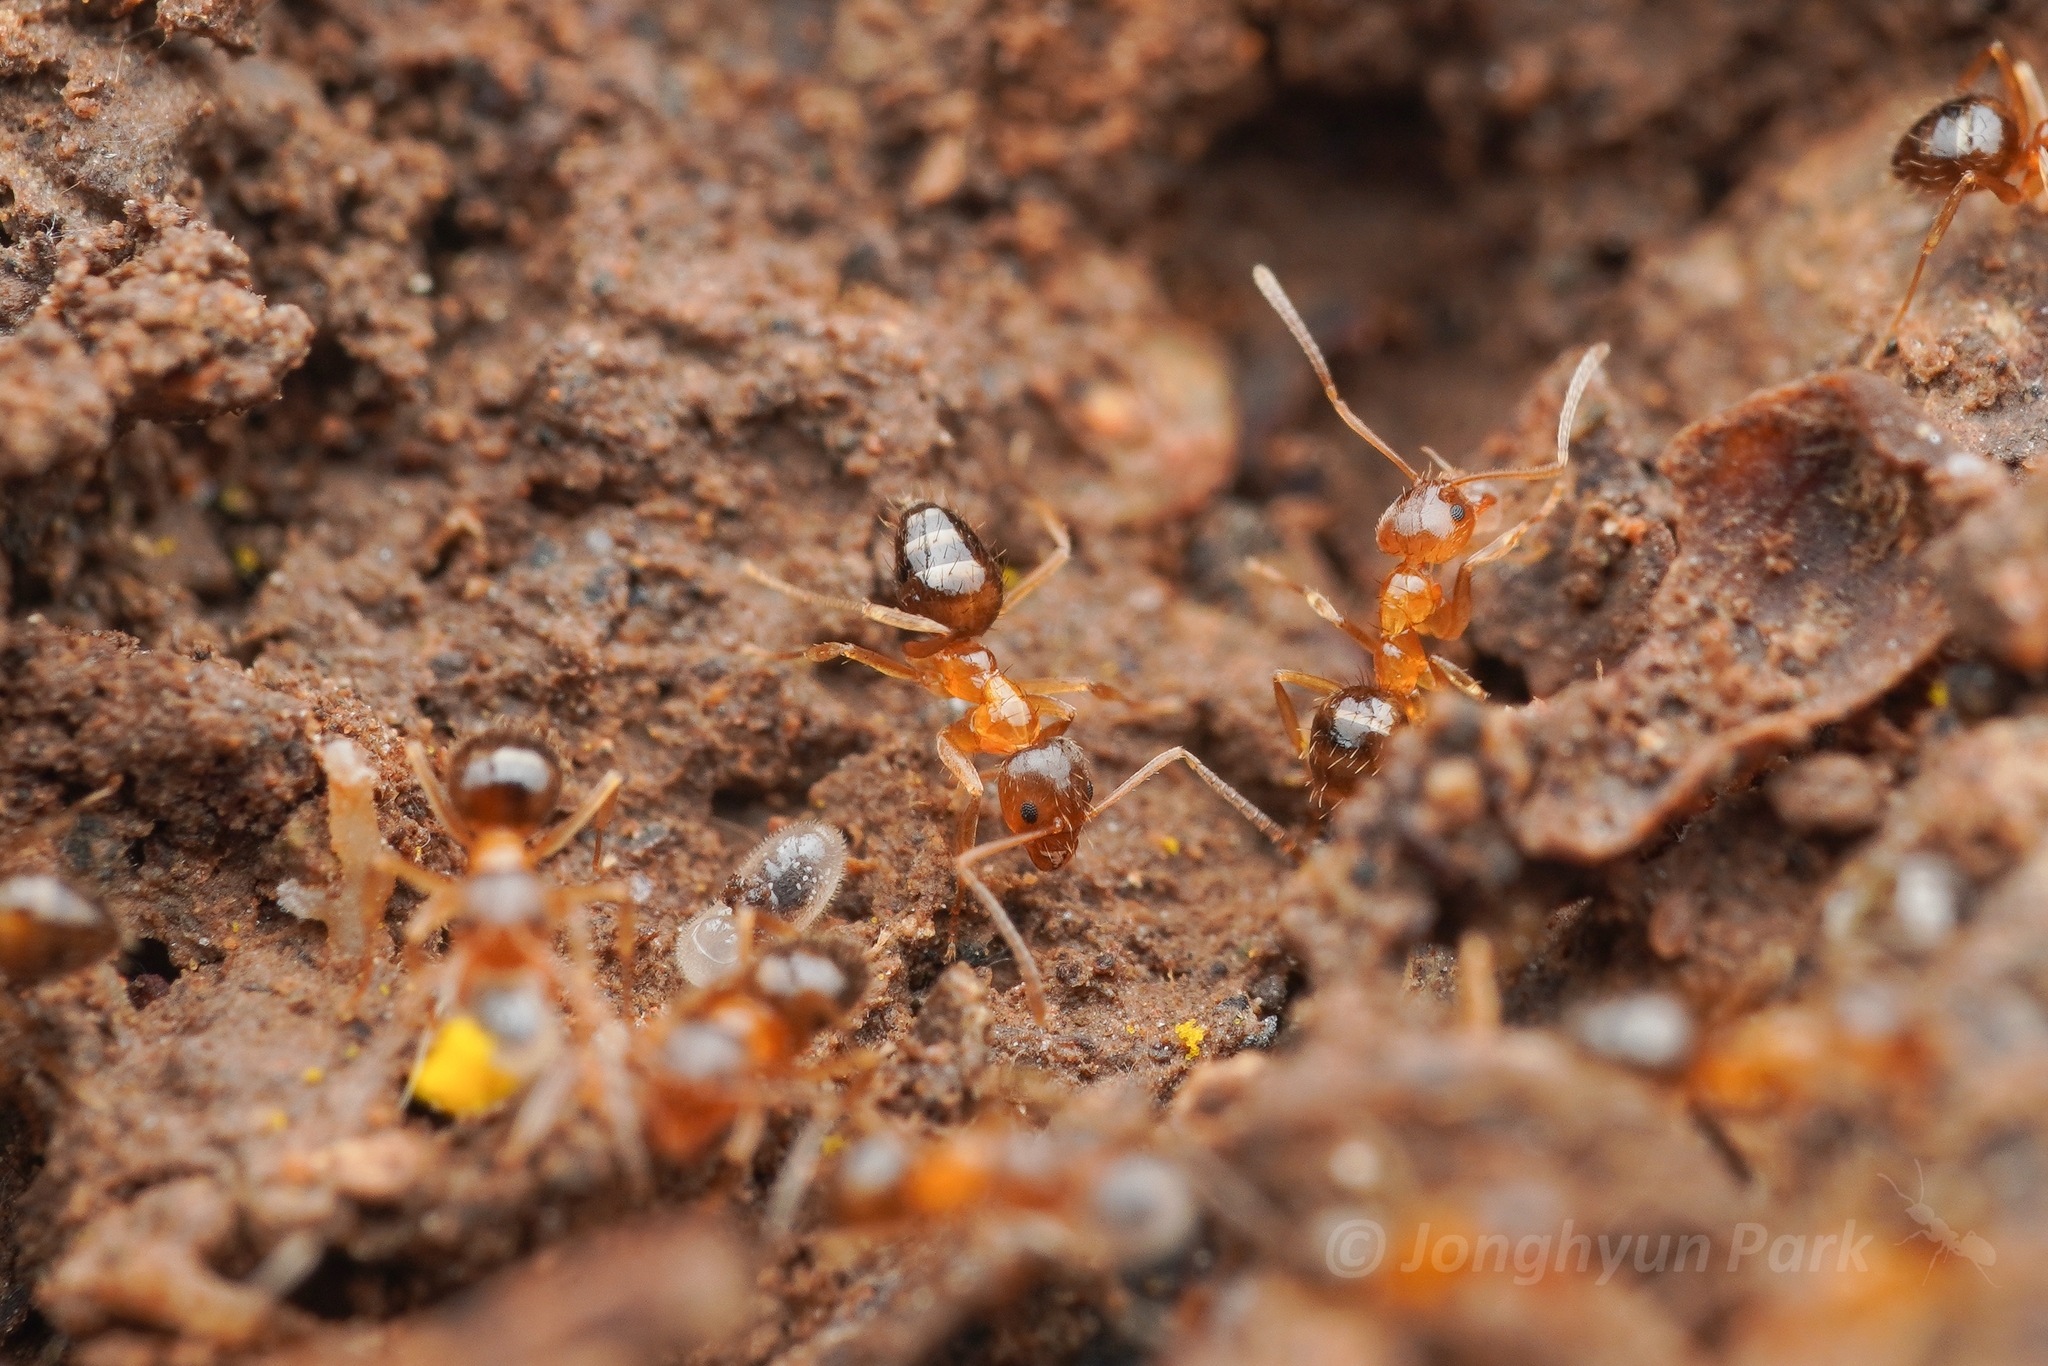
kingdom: Animalia
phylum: Arthropoda
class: Insecta
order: Hymenoptera
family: Formicidae
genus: Paratrechina
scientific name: Paratrechina flavipes
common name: Eastern asian formicine ant
